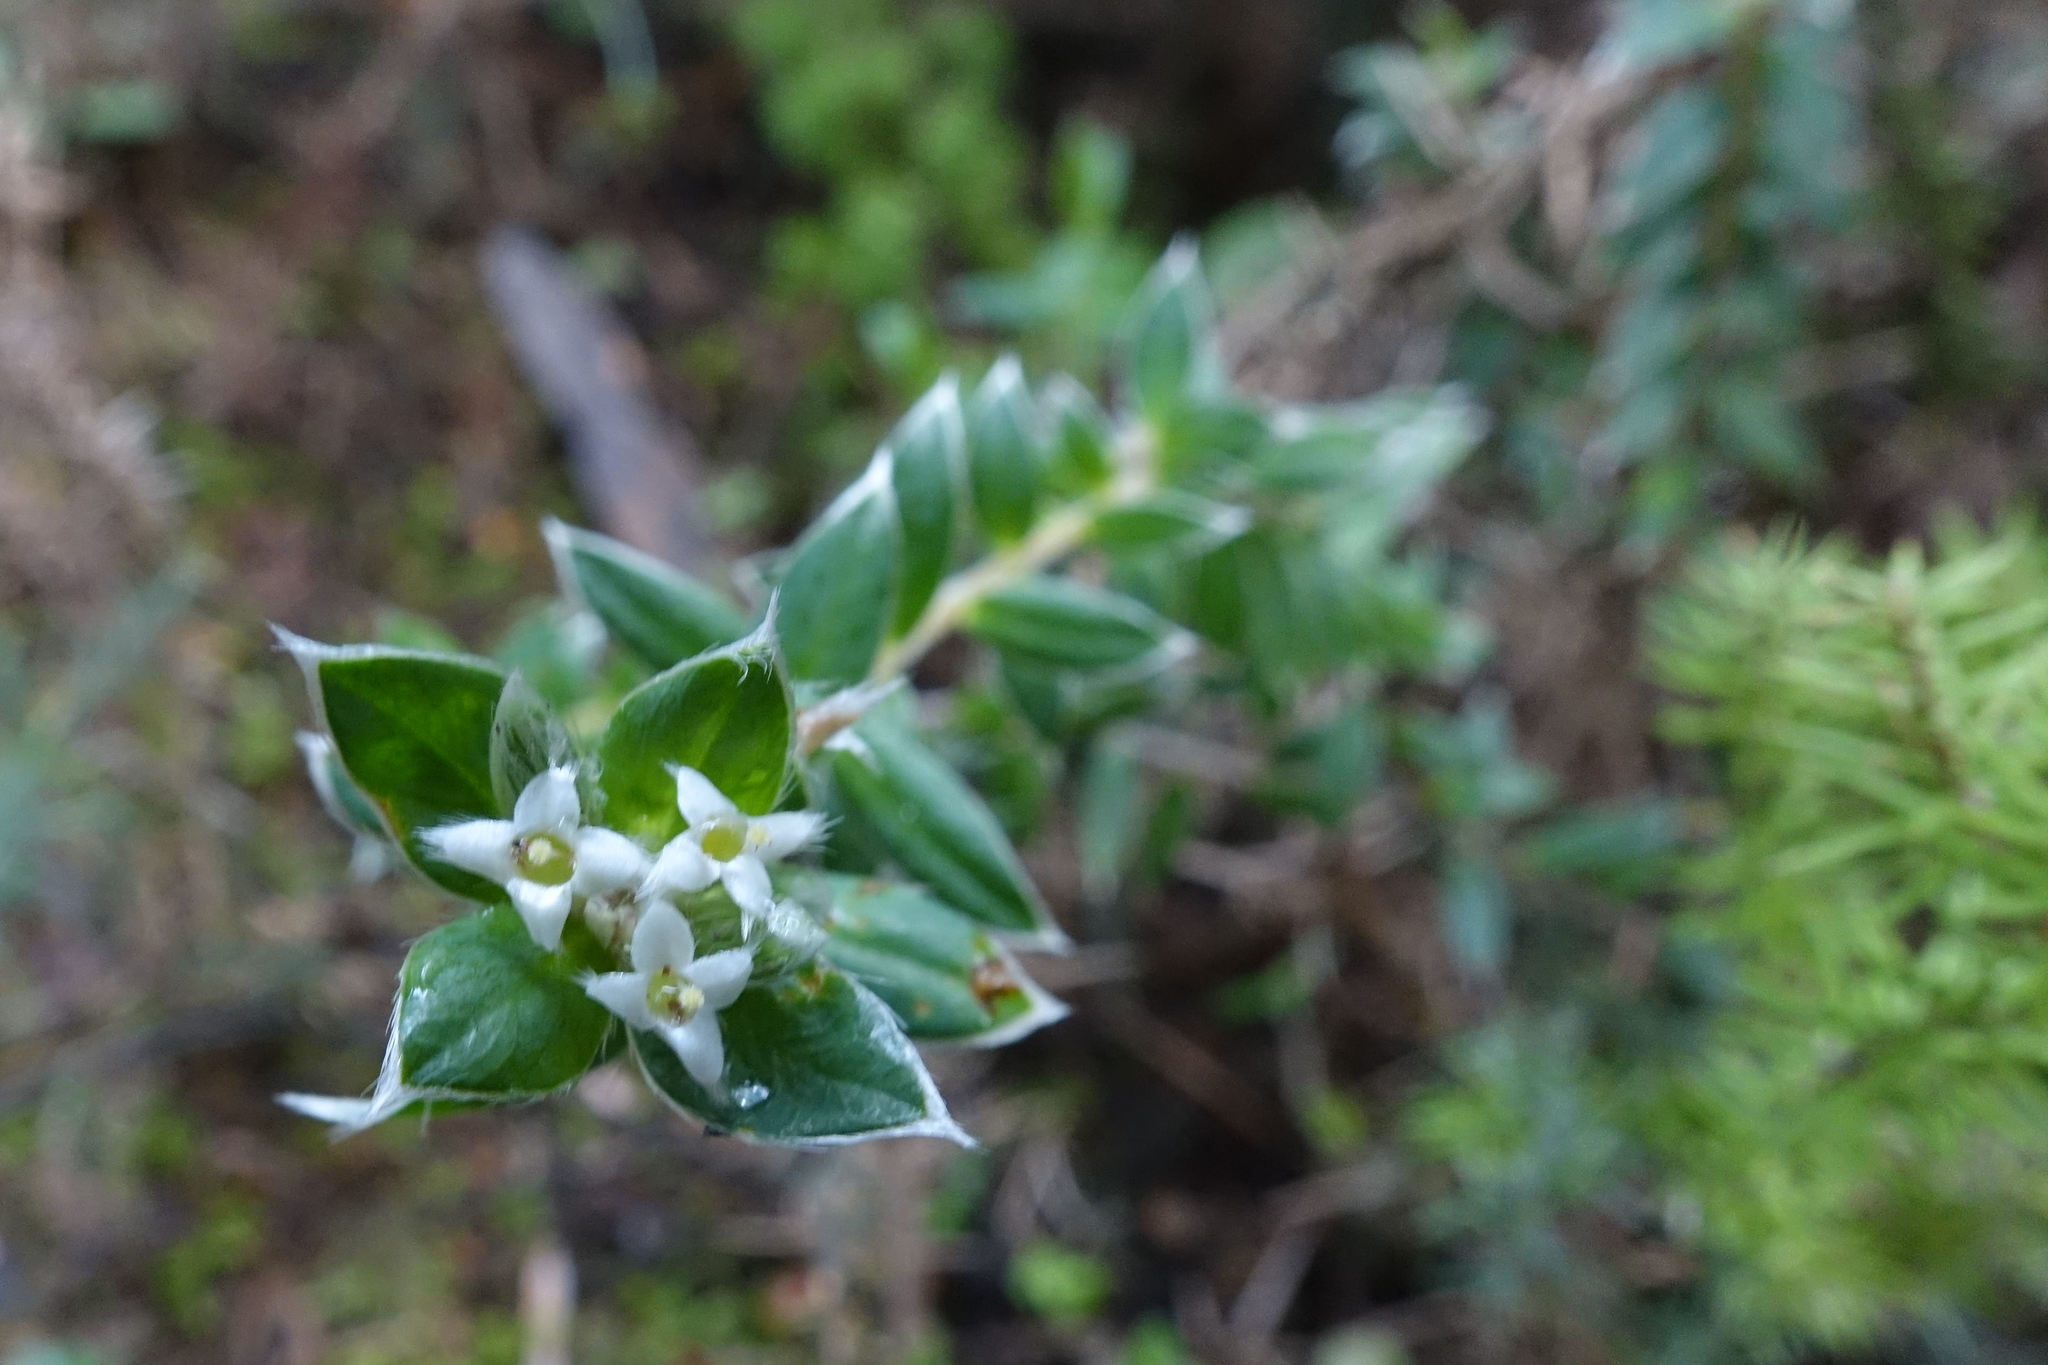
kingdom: Plantae
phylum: Tracheophyta
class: Magnoliopsida
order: Malvales
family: Thymelaeaceae
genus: Pimelea
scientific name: Pimelea pseudolyallii
